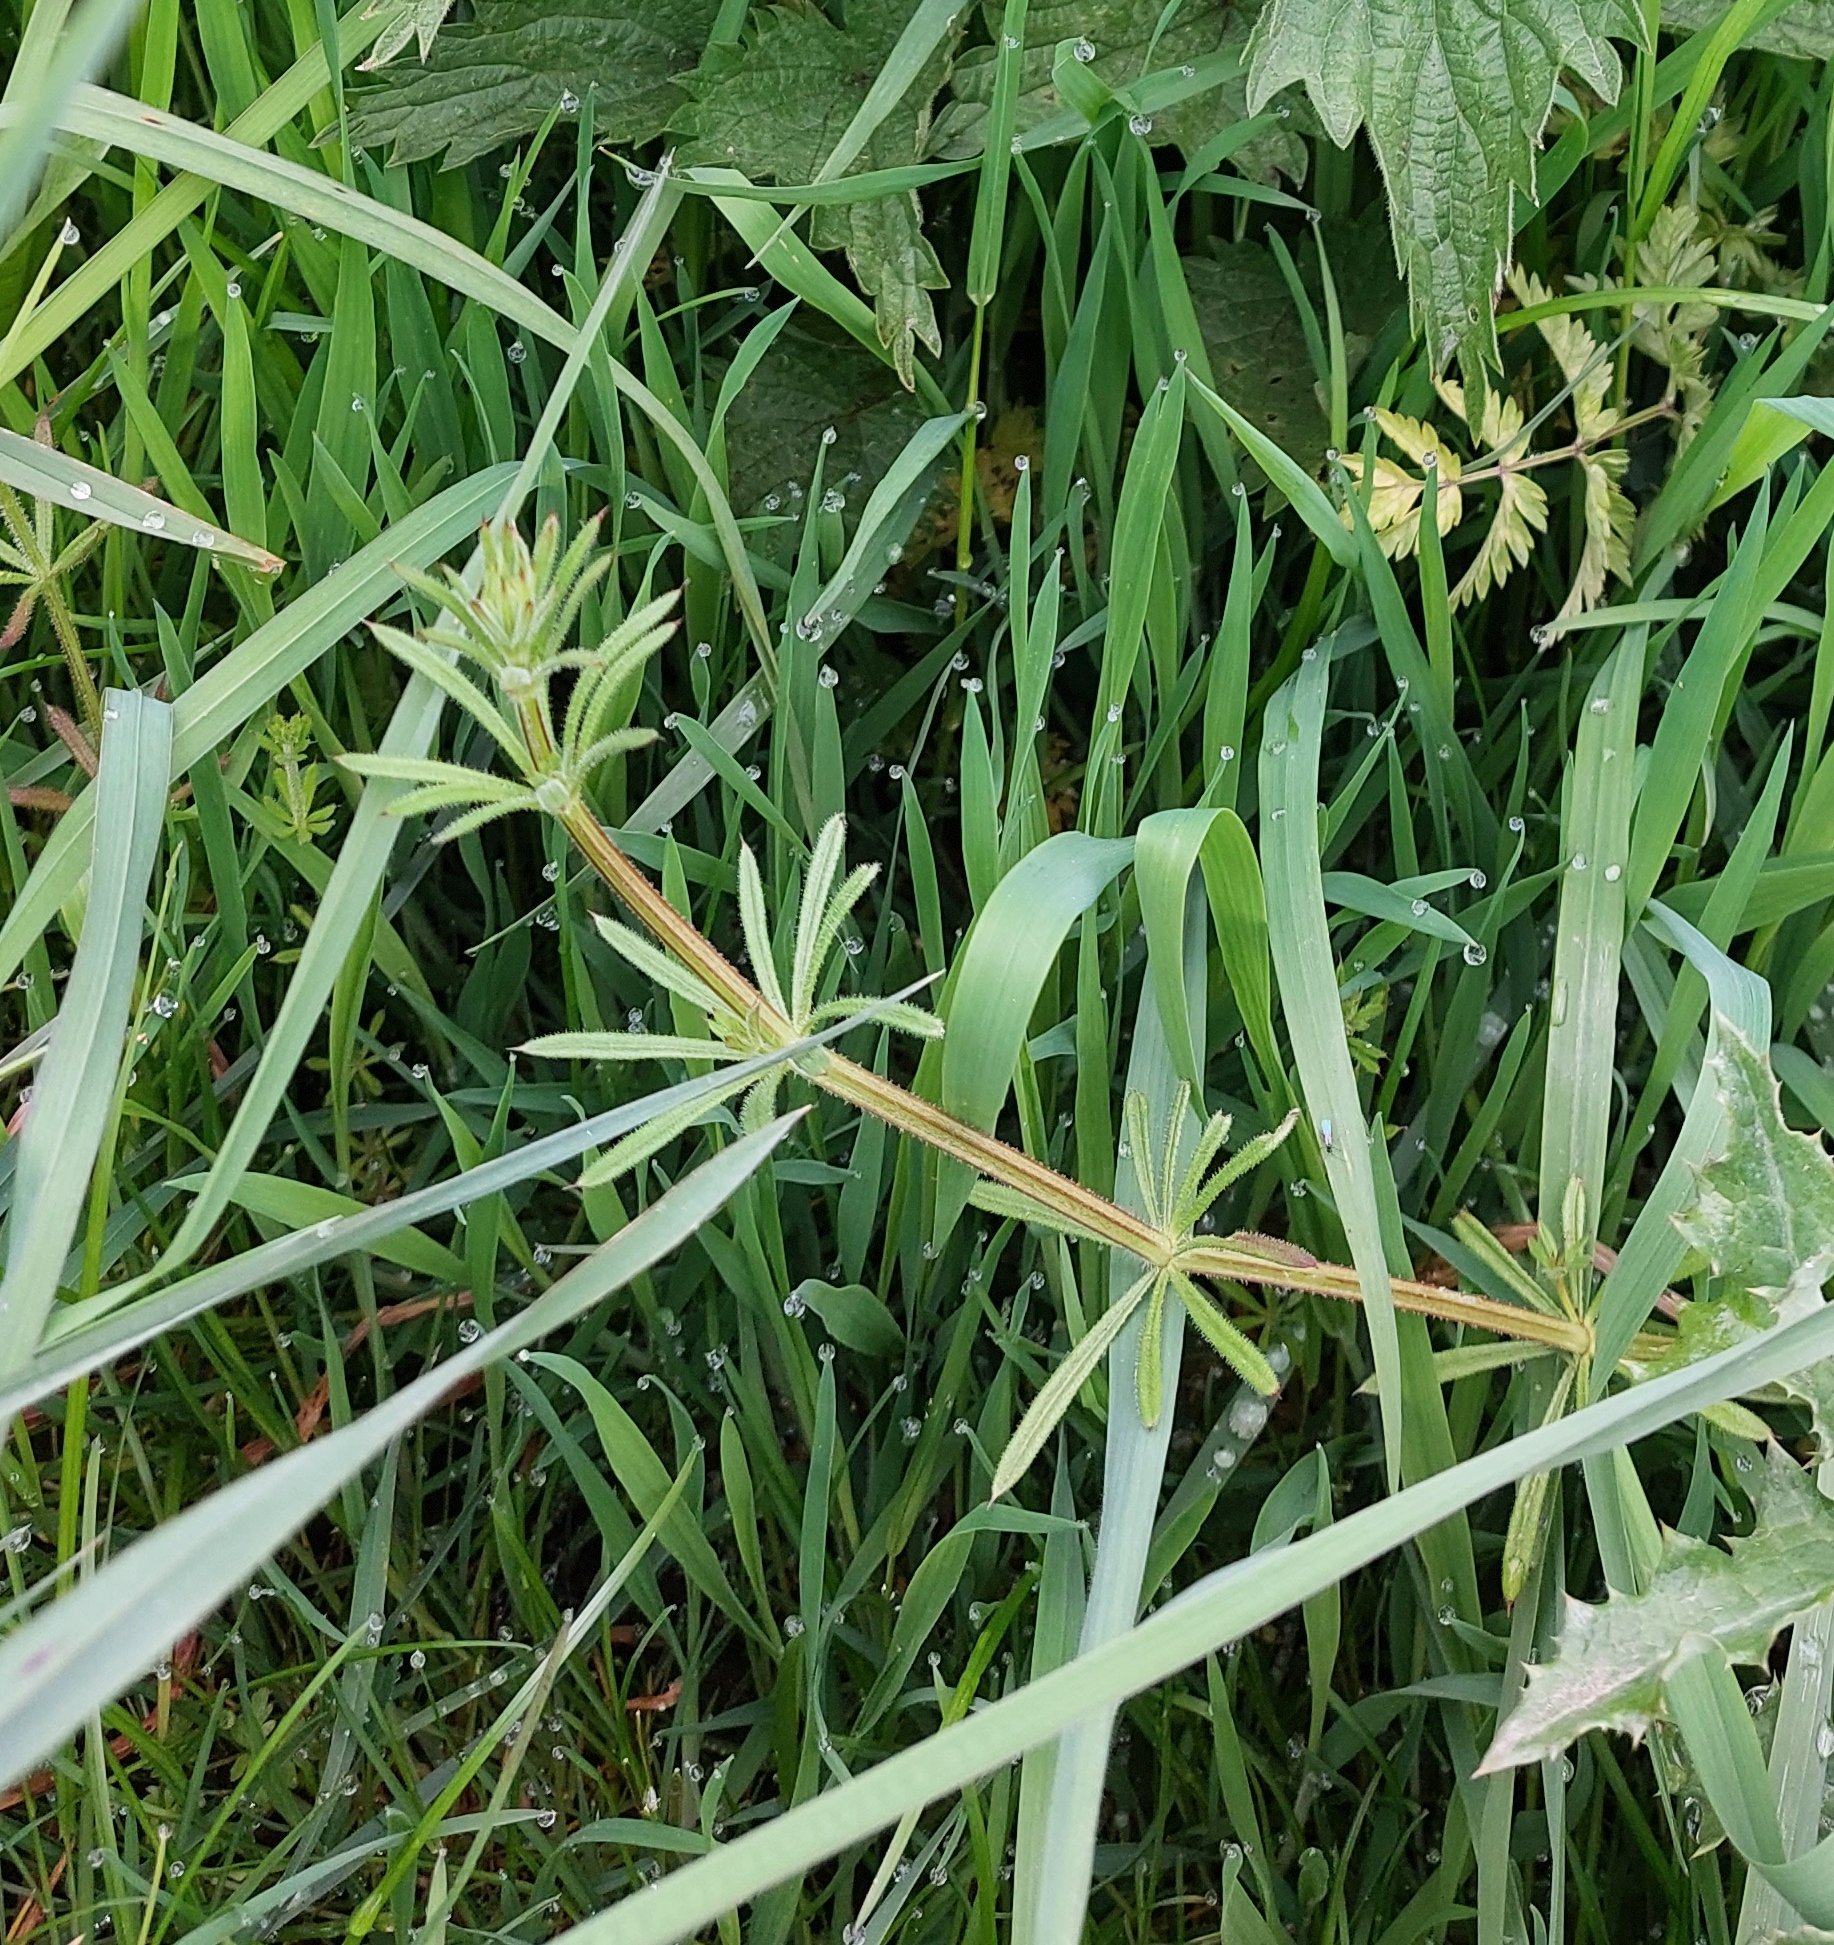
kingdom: Plantae
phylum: Tracheophyta
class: Magnoliopsida
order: Gentianales
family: Rubiaceae
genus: Galium
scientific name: Galium aparine
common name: Cleavers
